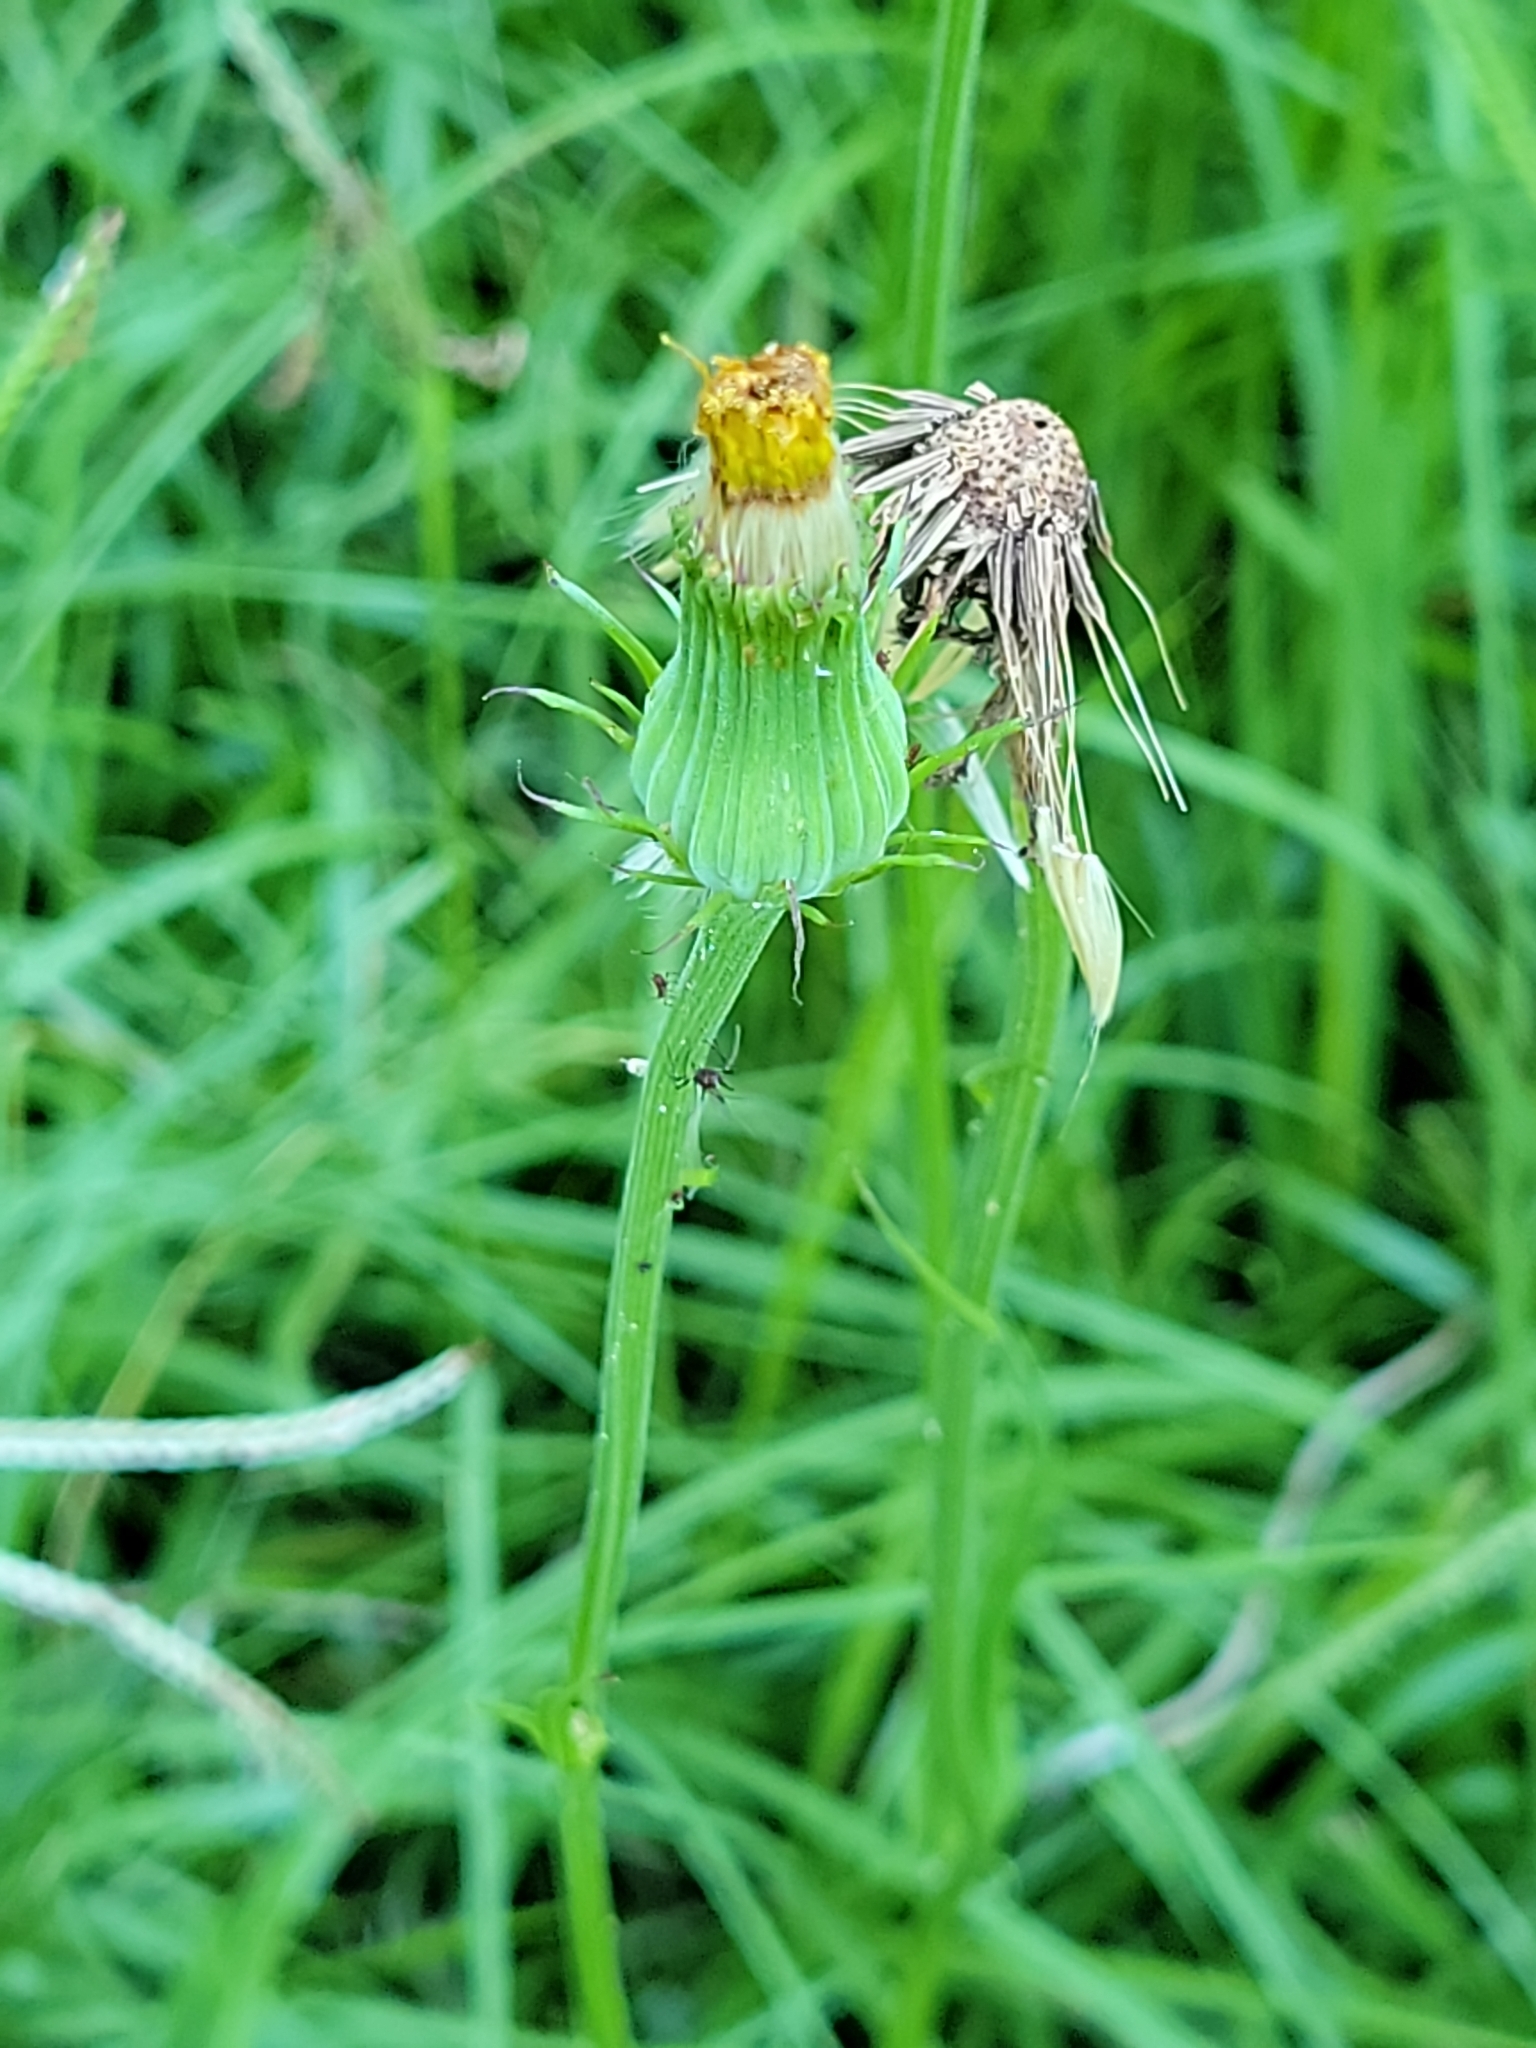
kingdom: Plantae
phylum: Tracheophyta
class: Magnoliopsida
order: Asterales
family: Asteraceae
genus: Pyrrhopappus
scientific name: Pyrrhopappus carolinianus
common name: Carolina desert-chicory
